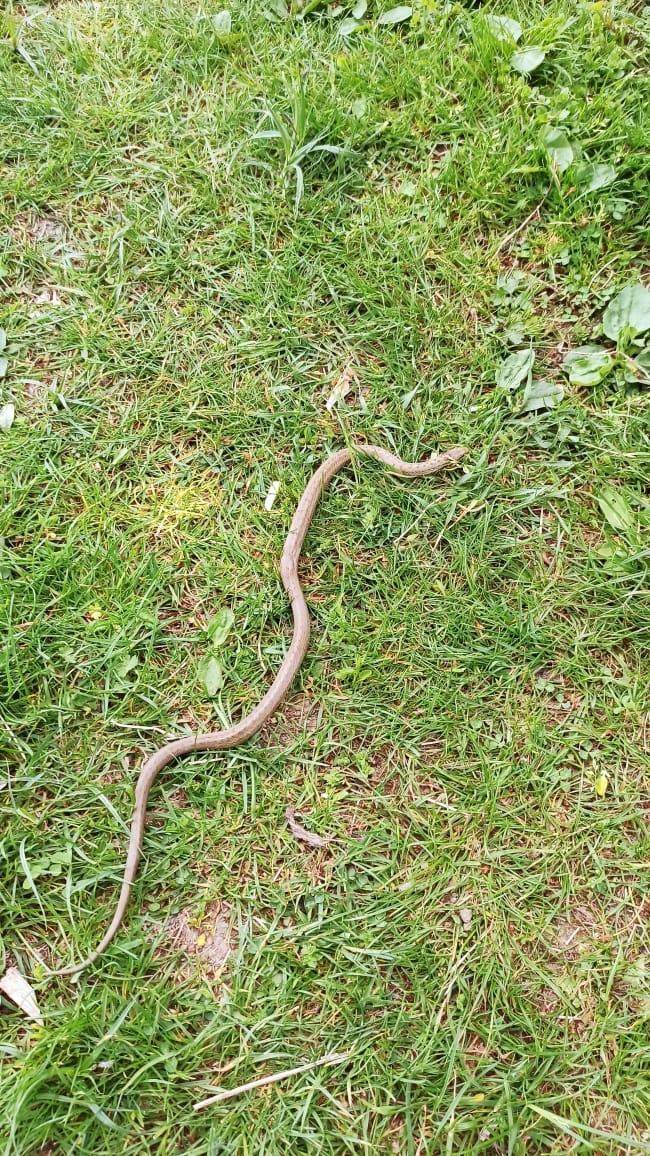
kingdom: Animalia
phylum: Chordata
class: Squamata
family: Colubridae
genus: Coronella
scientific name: Coronella austriaca
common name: Smooth snake
